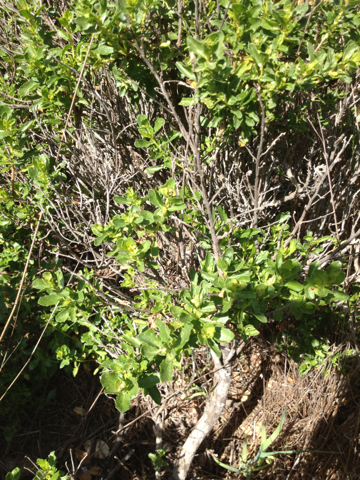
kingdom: Plantae
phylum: Tracheophyta
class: Magnoliopsida
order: Asterales
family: Asteraceae
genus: Baccharis
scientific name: Baccharis pilularis
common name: Coyotebrush
